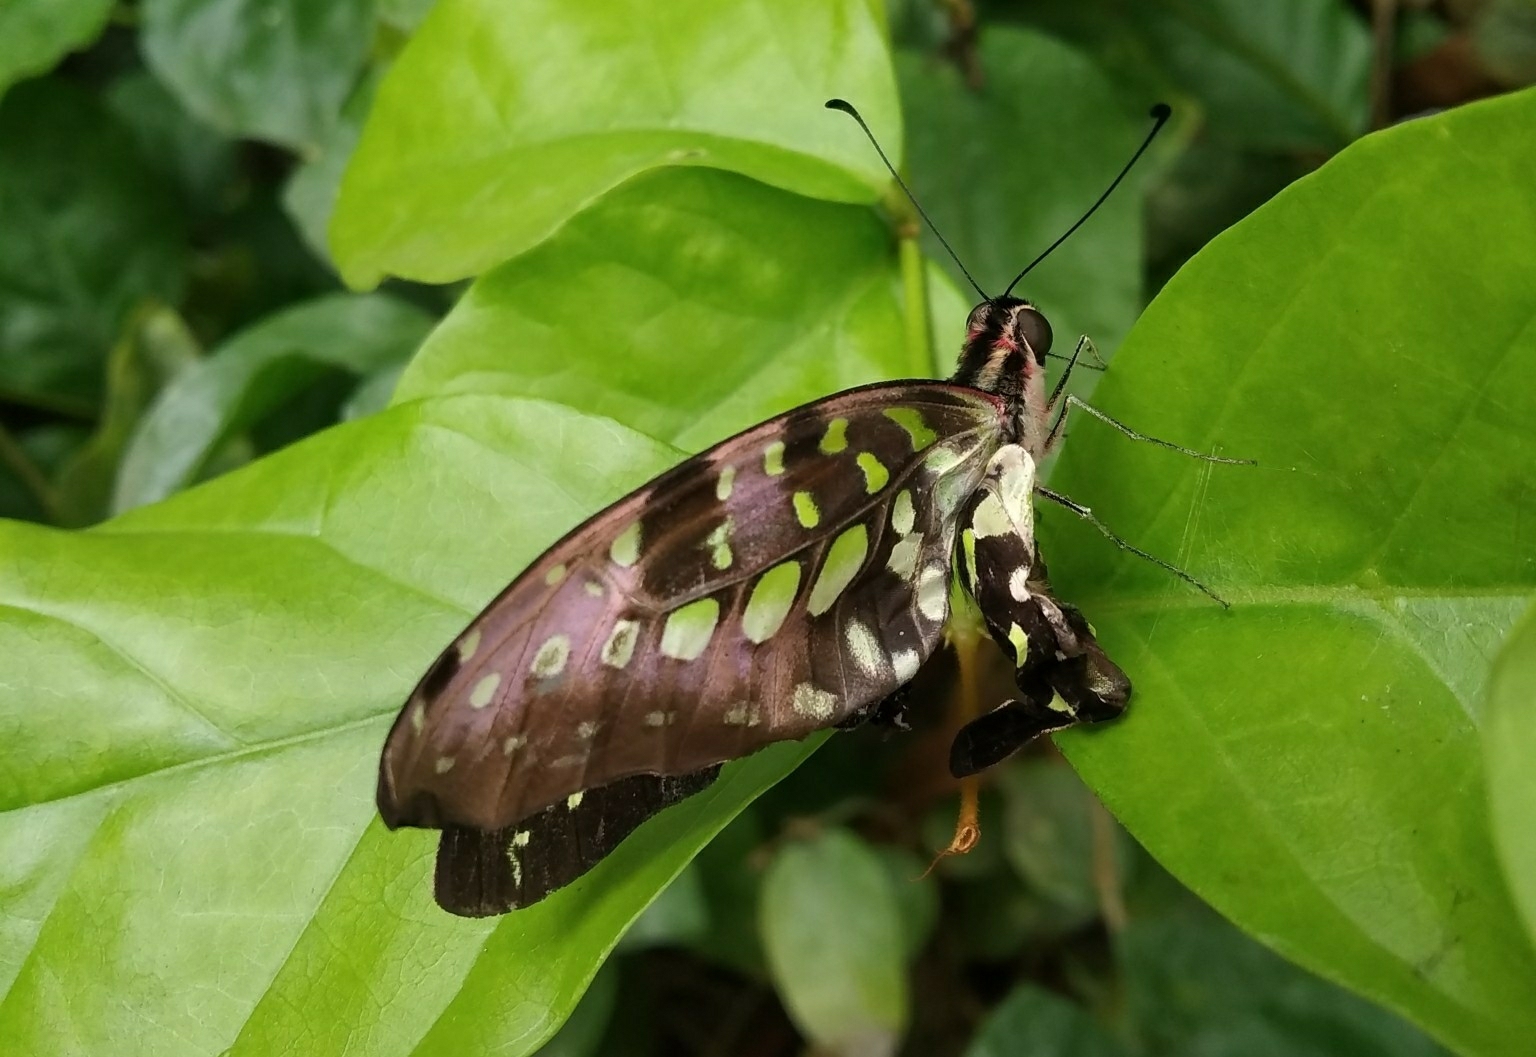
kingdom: Animalia
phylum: Arthropoda
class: Insecta
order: Lepidoptera
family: Papilionidae
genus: Graphium
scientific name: Graphium agamemnon
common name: Tailed jay
